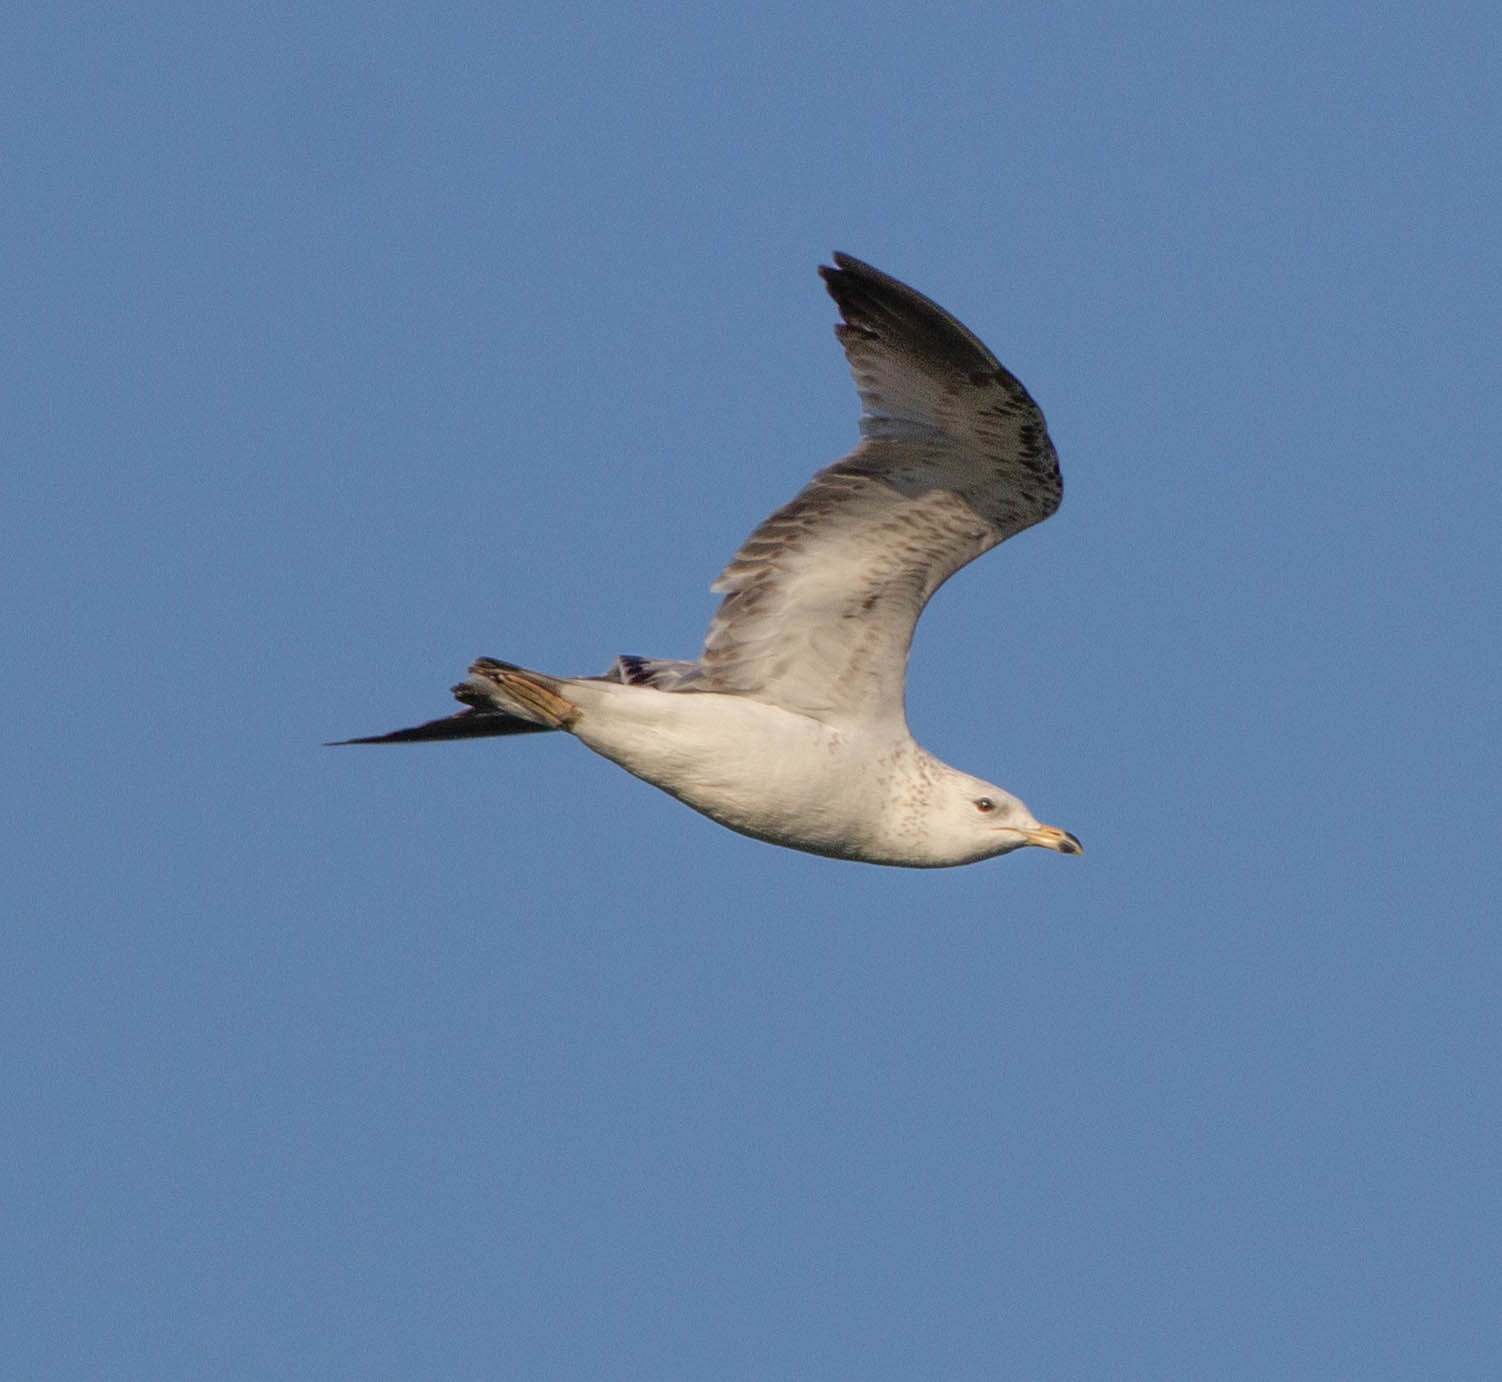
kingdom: Animalia
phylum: Chordata
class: Aves
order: Charadriiformes
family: Laridae
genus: Larus
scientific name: Larus delawarensis
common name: Ring-billed gull
